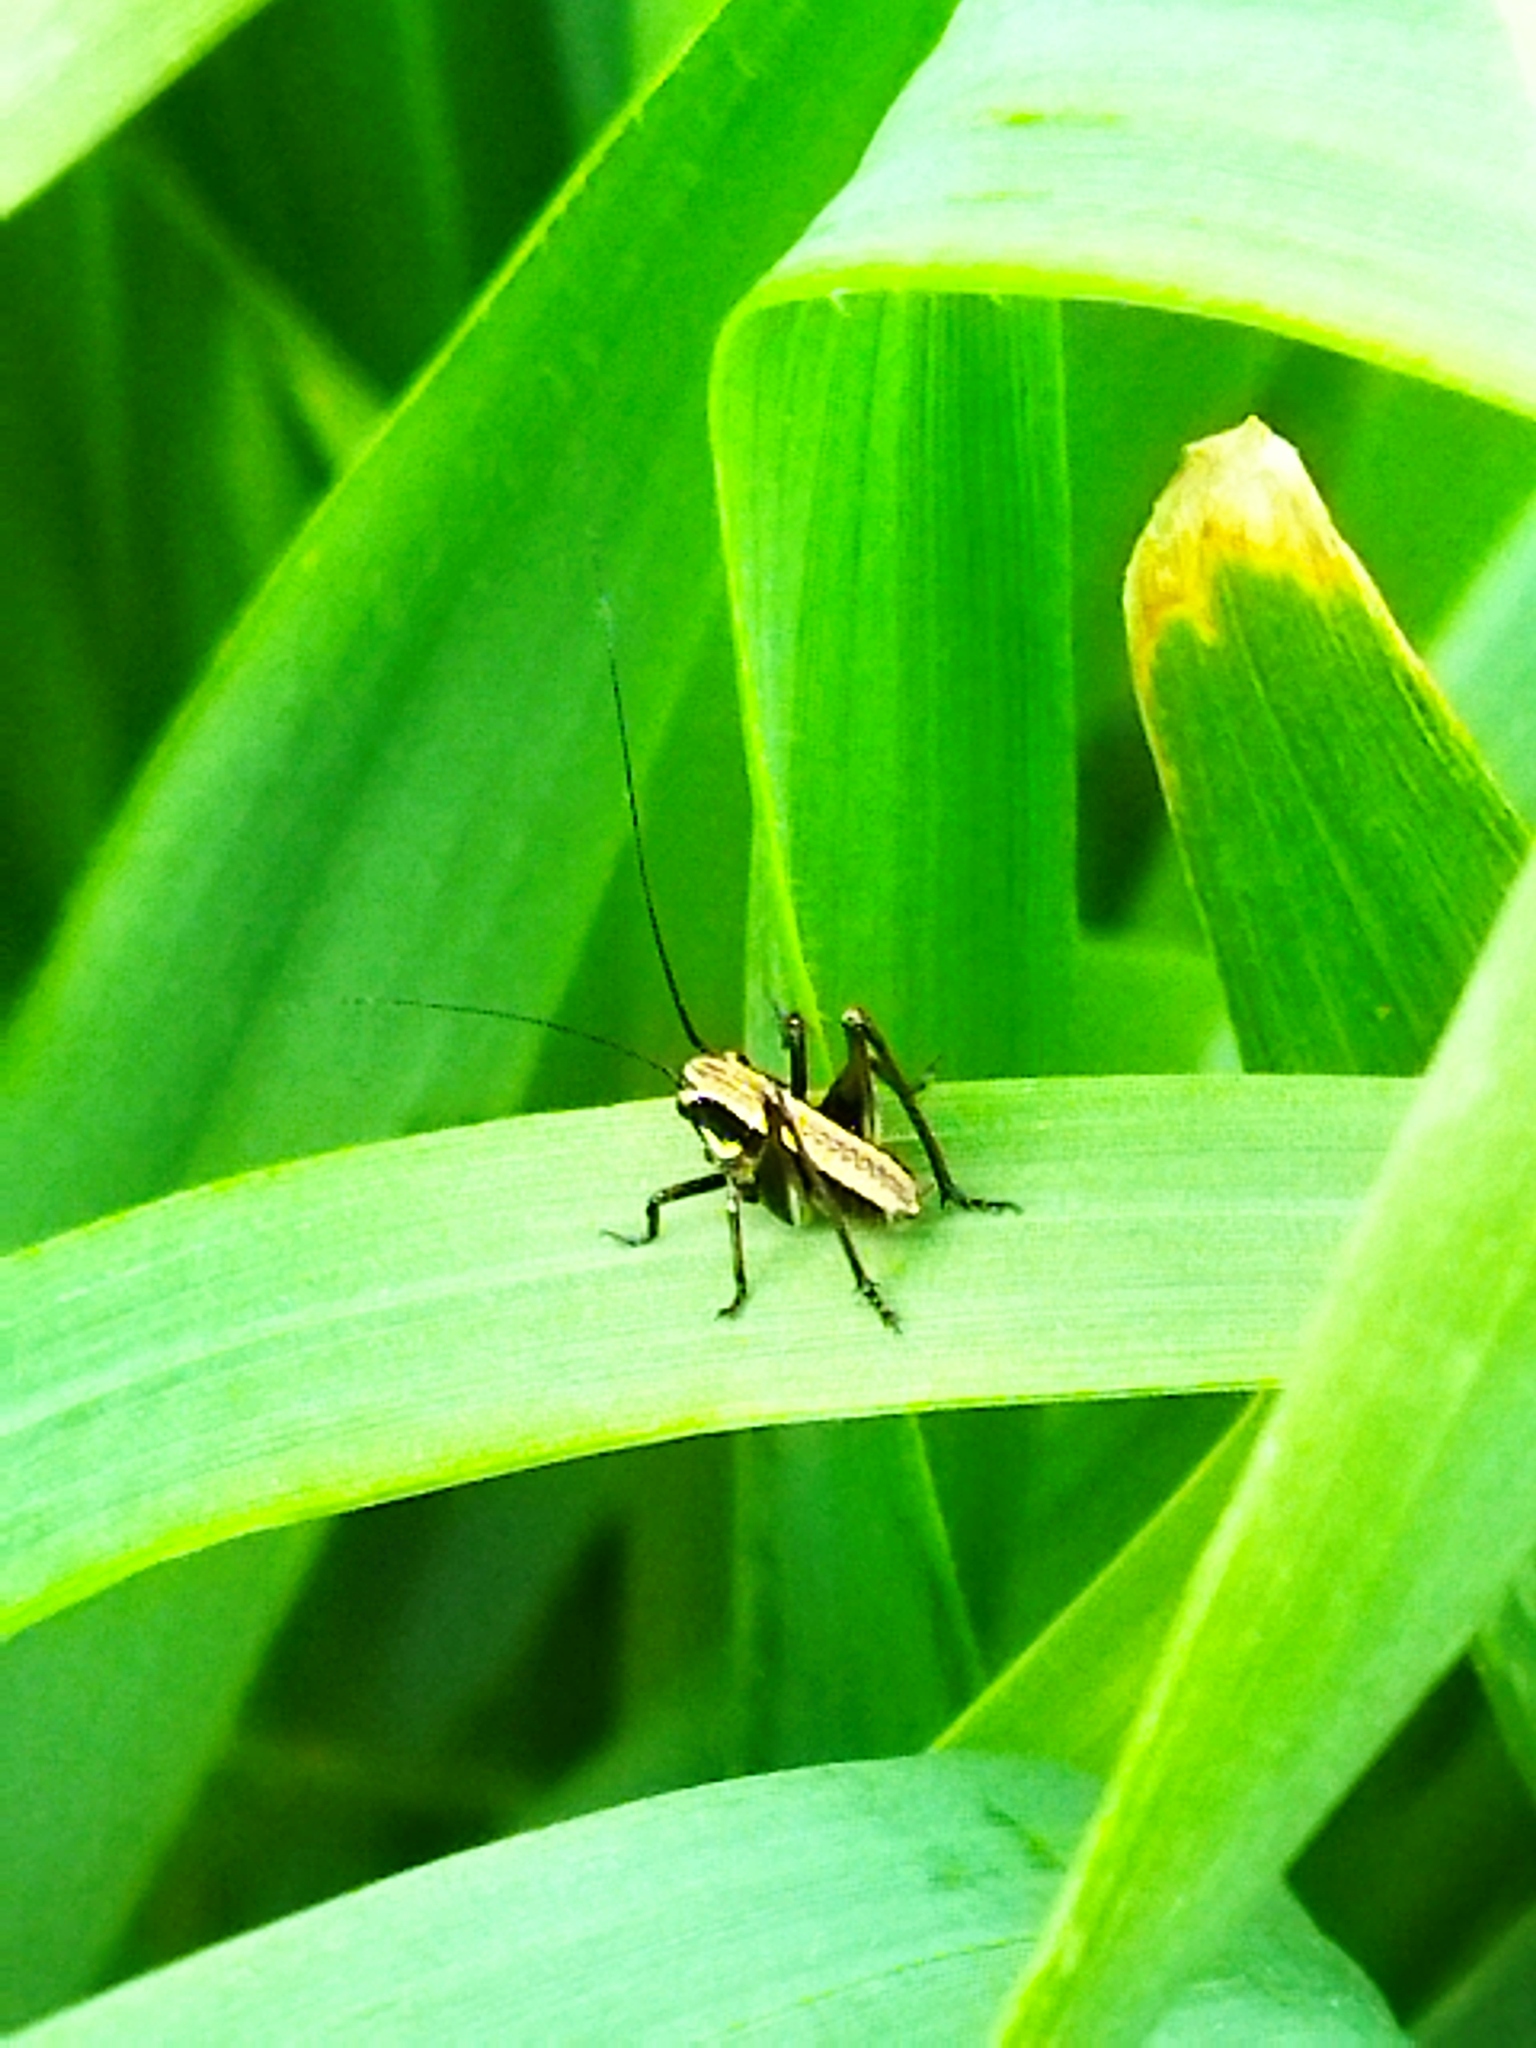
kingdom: Animalia
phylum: Arthropoda
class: Insecta
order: Orthoptera
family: Tettigoniidae
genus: Pholidoptera
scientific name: Pholidoptera griseoaptera
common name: Dark bush-cricket
